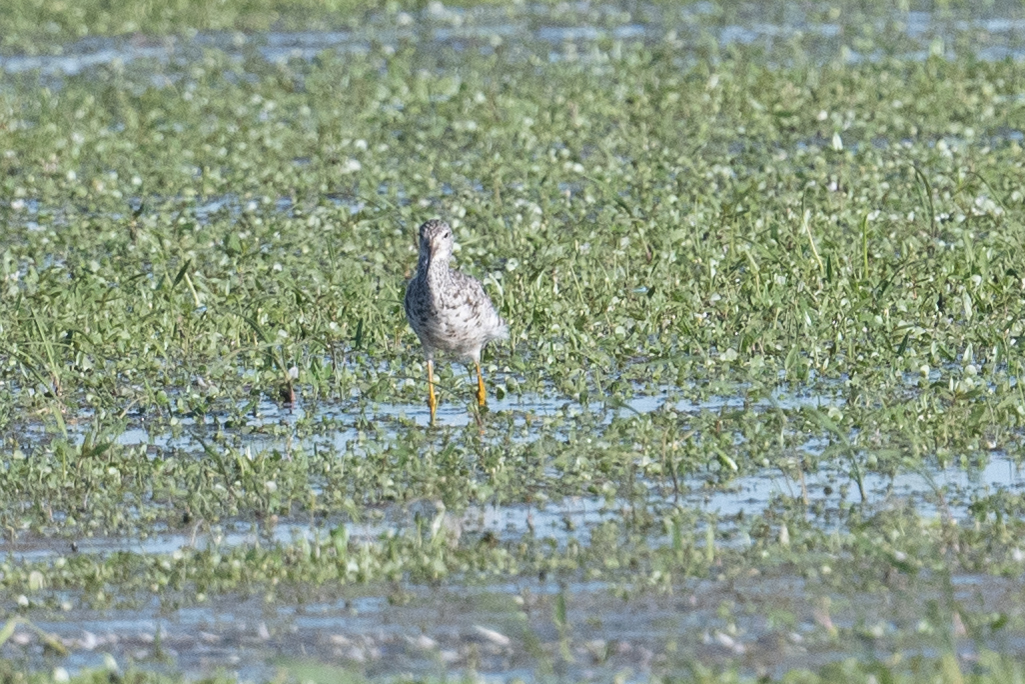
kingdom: Animalia
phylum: Chordata
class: Aves
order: Charadriiformes
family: Scolopacidae
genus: Tringa
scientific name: Tringa melanoleuca
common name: Greater yellowlegs
